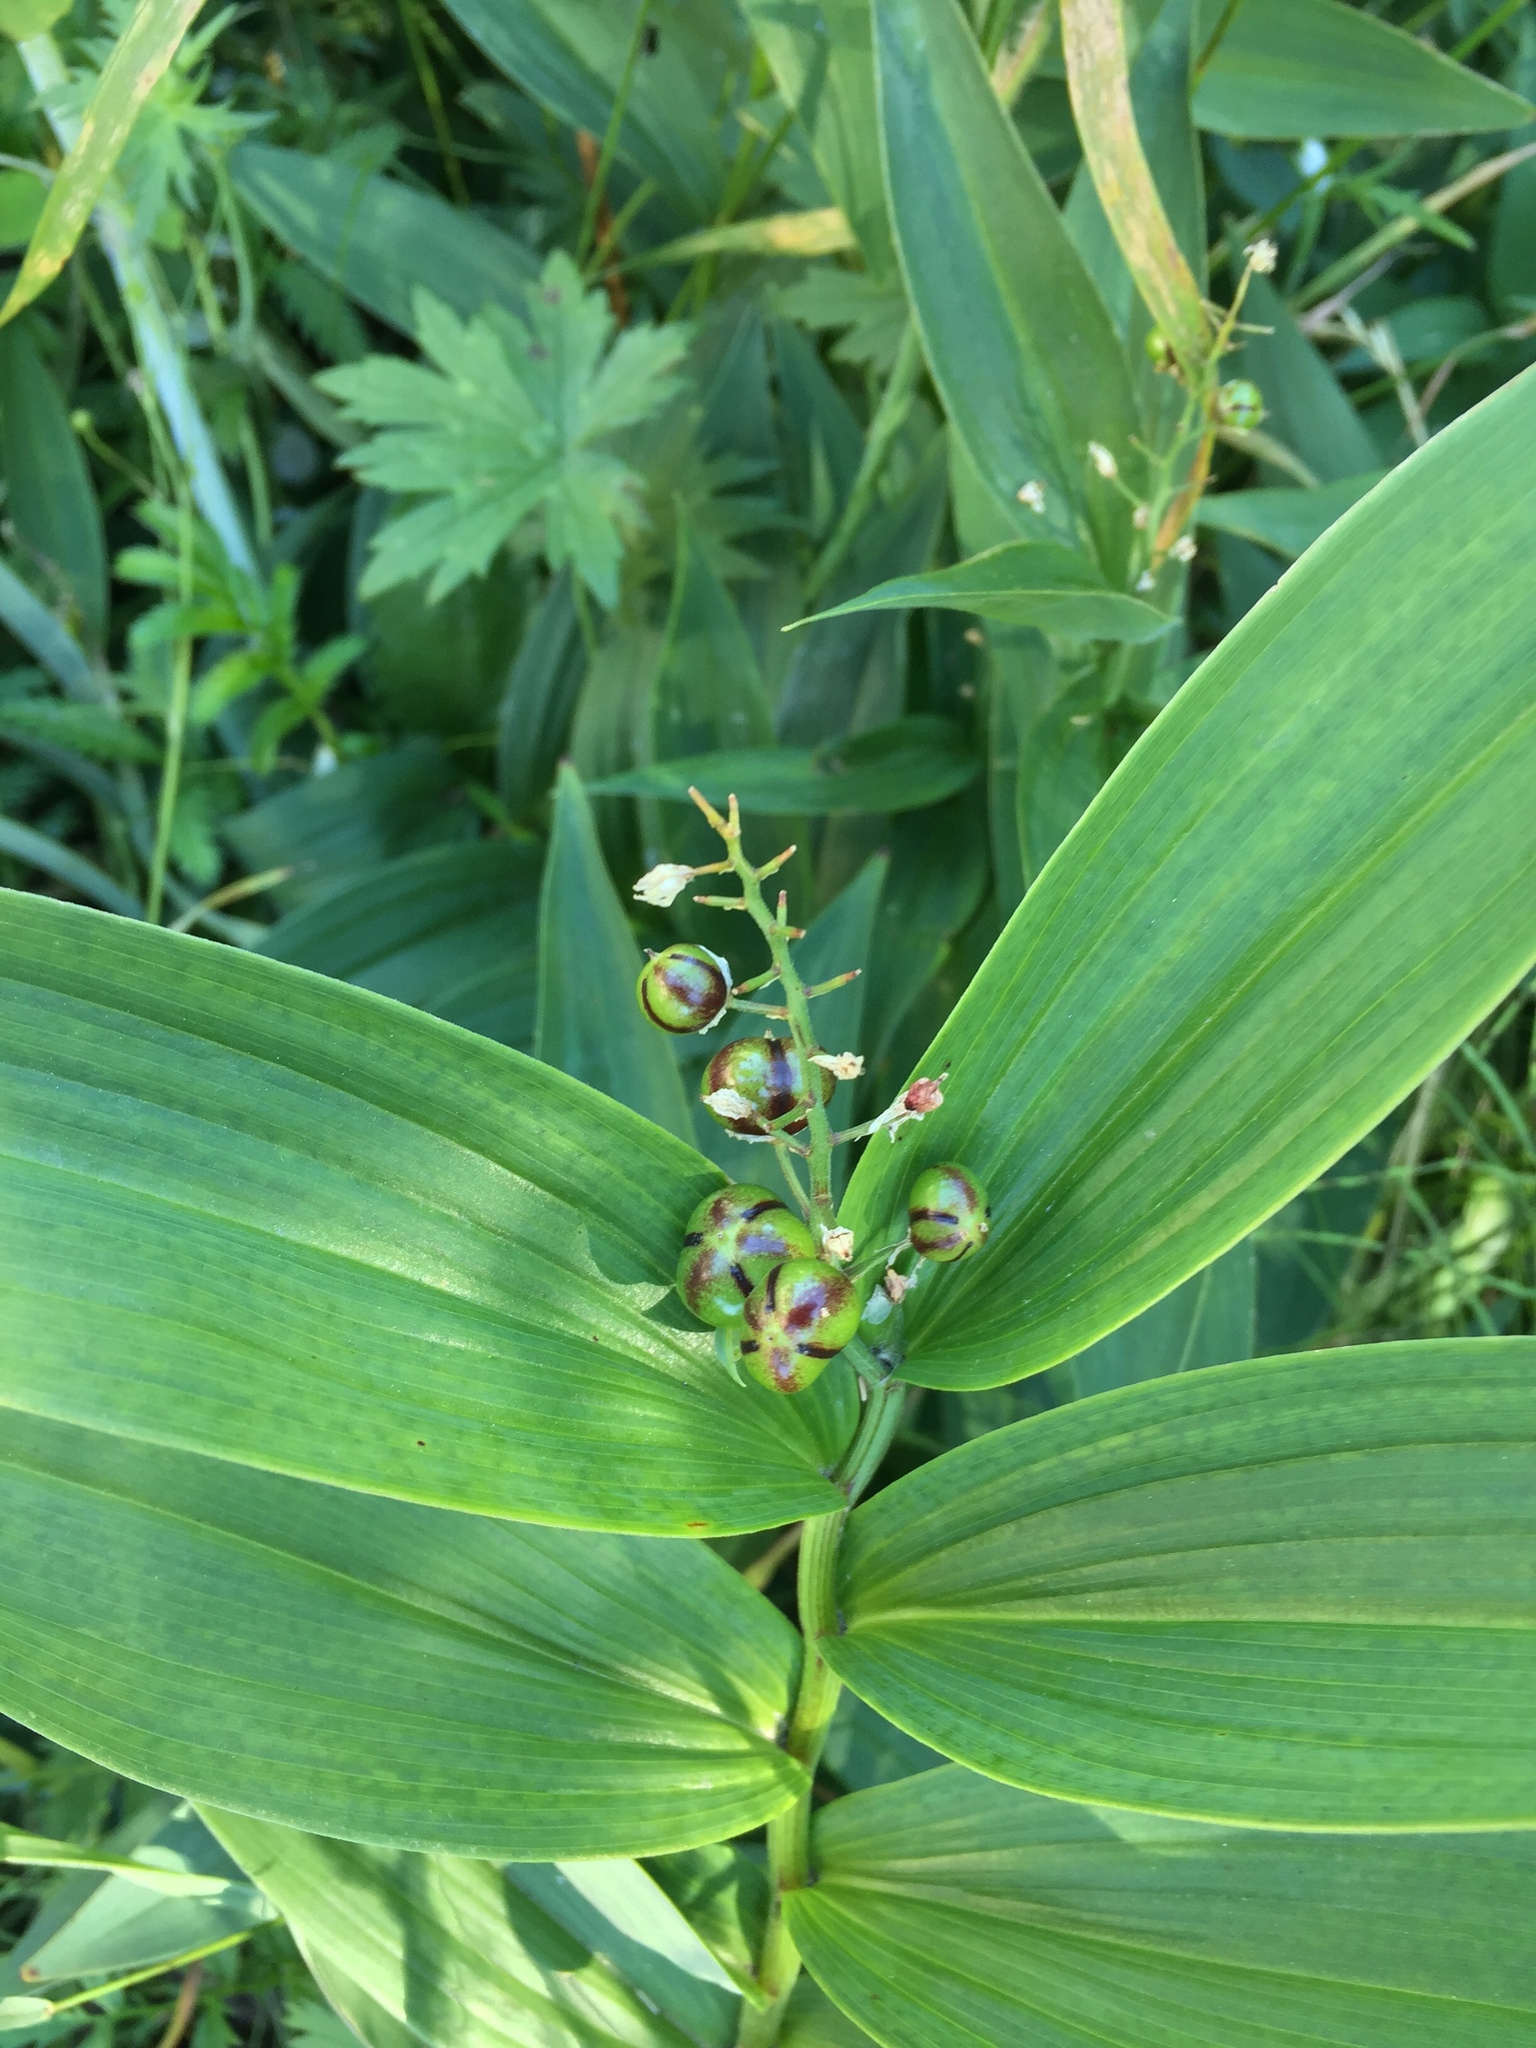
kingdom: Plantae
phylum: Tracheophyta
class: Liliopsida
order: Asparagales
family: Asparagaceae
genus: Maianthemum
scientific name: Maianthemum stellatum
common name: Little false solomon's seal
